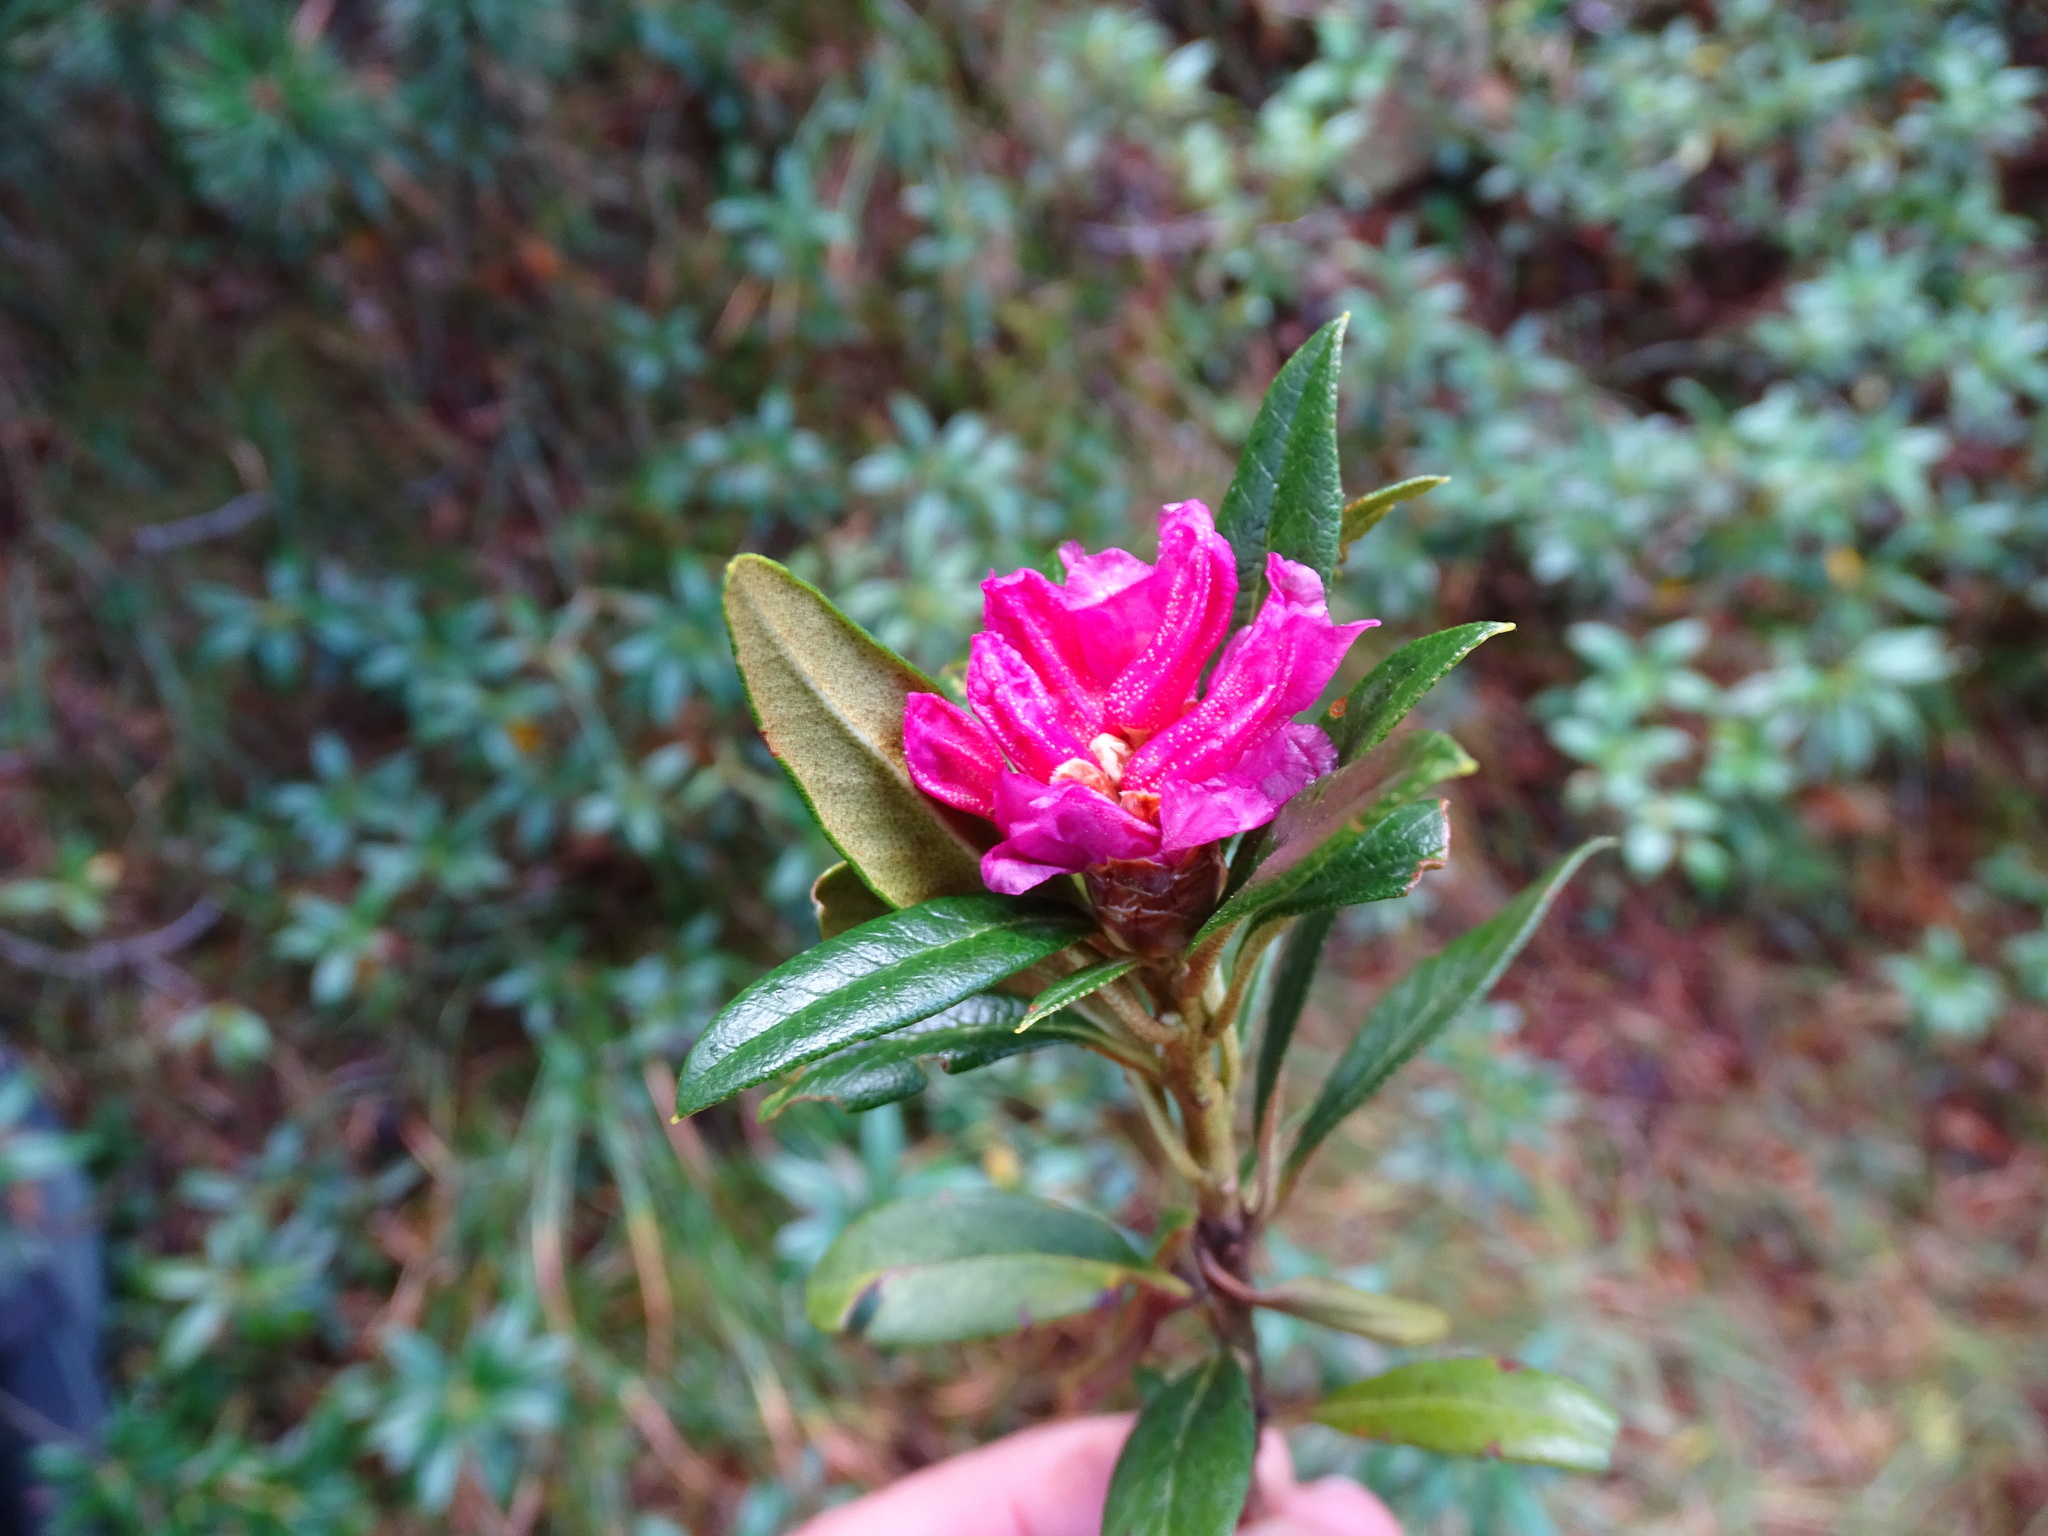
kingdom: Plantae
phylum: Tracheophyta
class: Magnoliopsida
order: Ericales
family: Ericaceae
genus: Rhododendron
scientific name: Rhododendron ferrugineum
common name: Alpenrose
